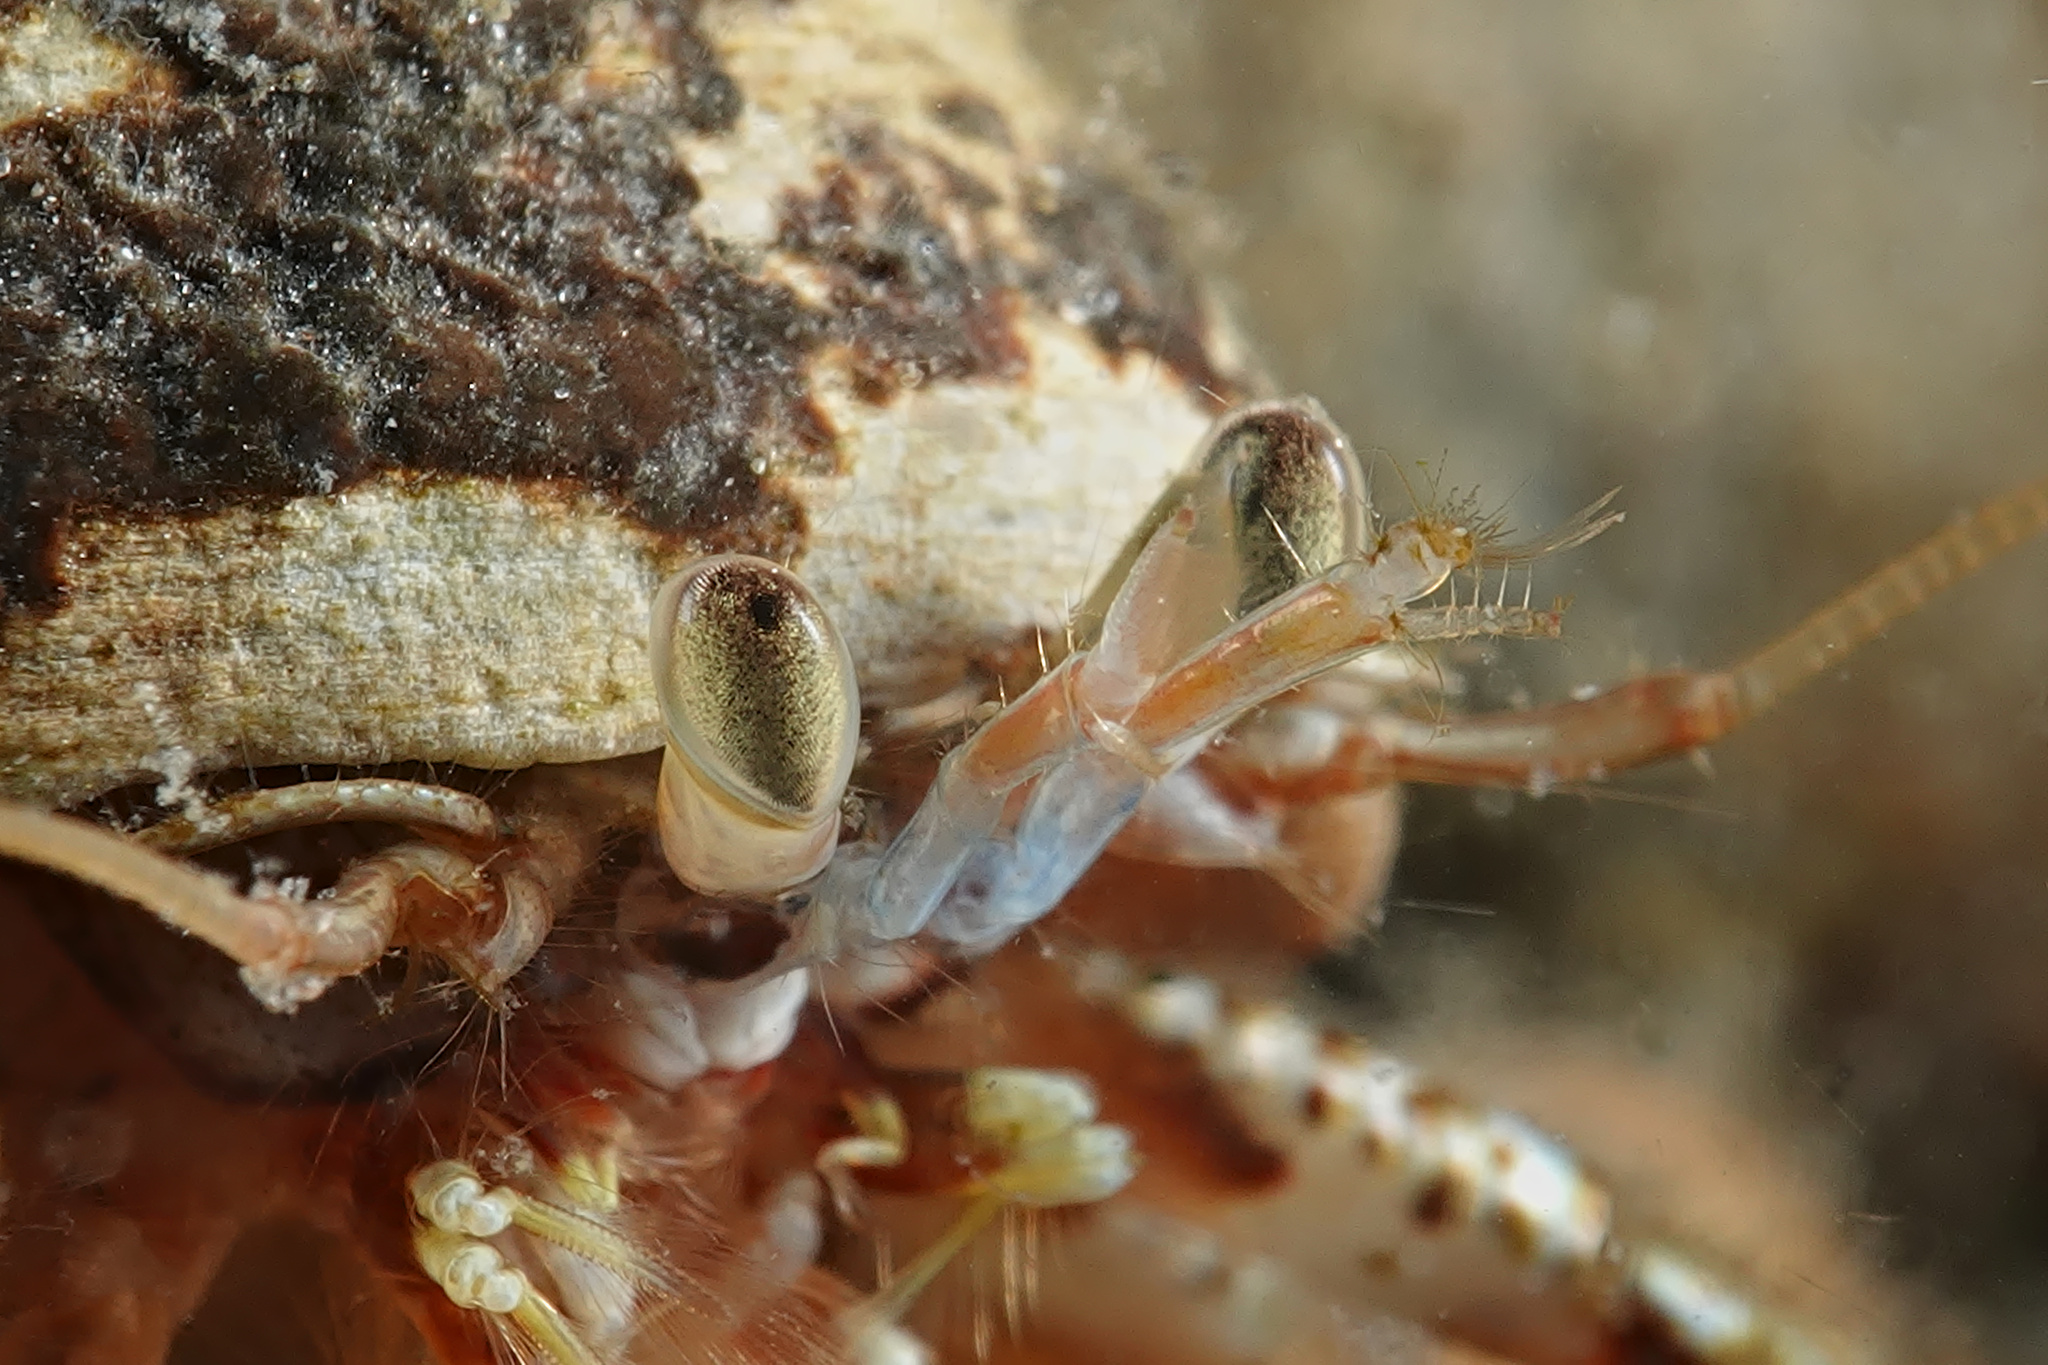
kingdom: Animalia
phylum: Arthropoda
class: Malacostraca
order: Decapoda
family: Paguridae
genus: Pagurus
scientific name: Pagurus bernhardus
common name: Hermit crab
